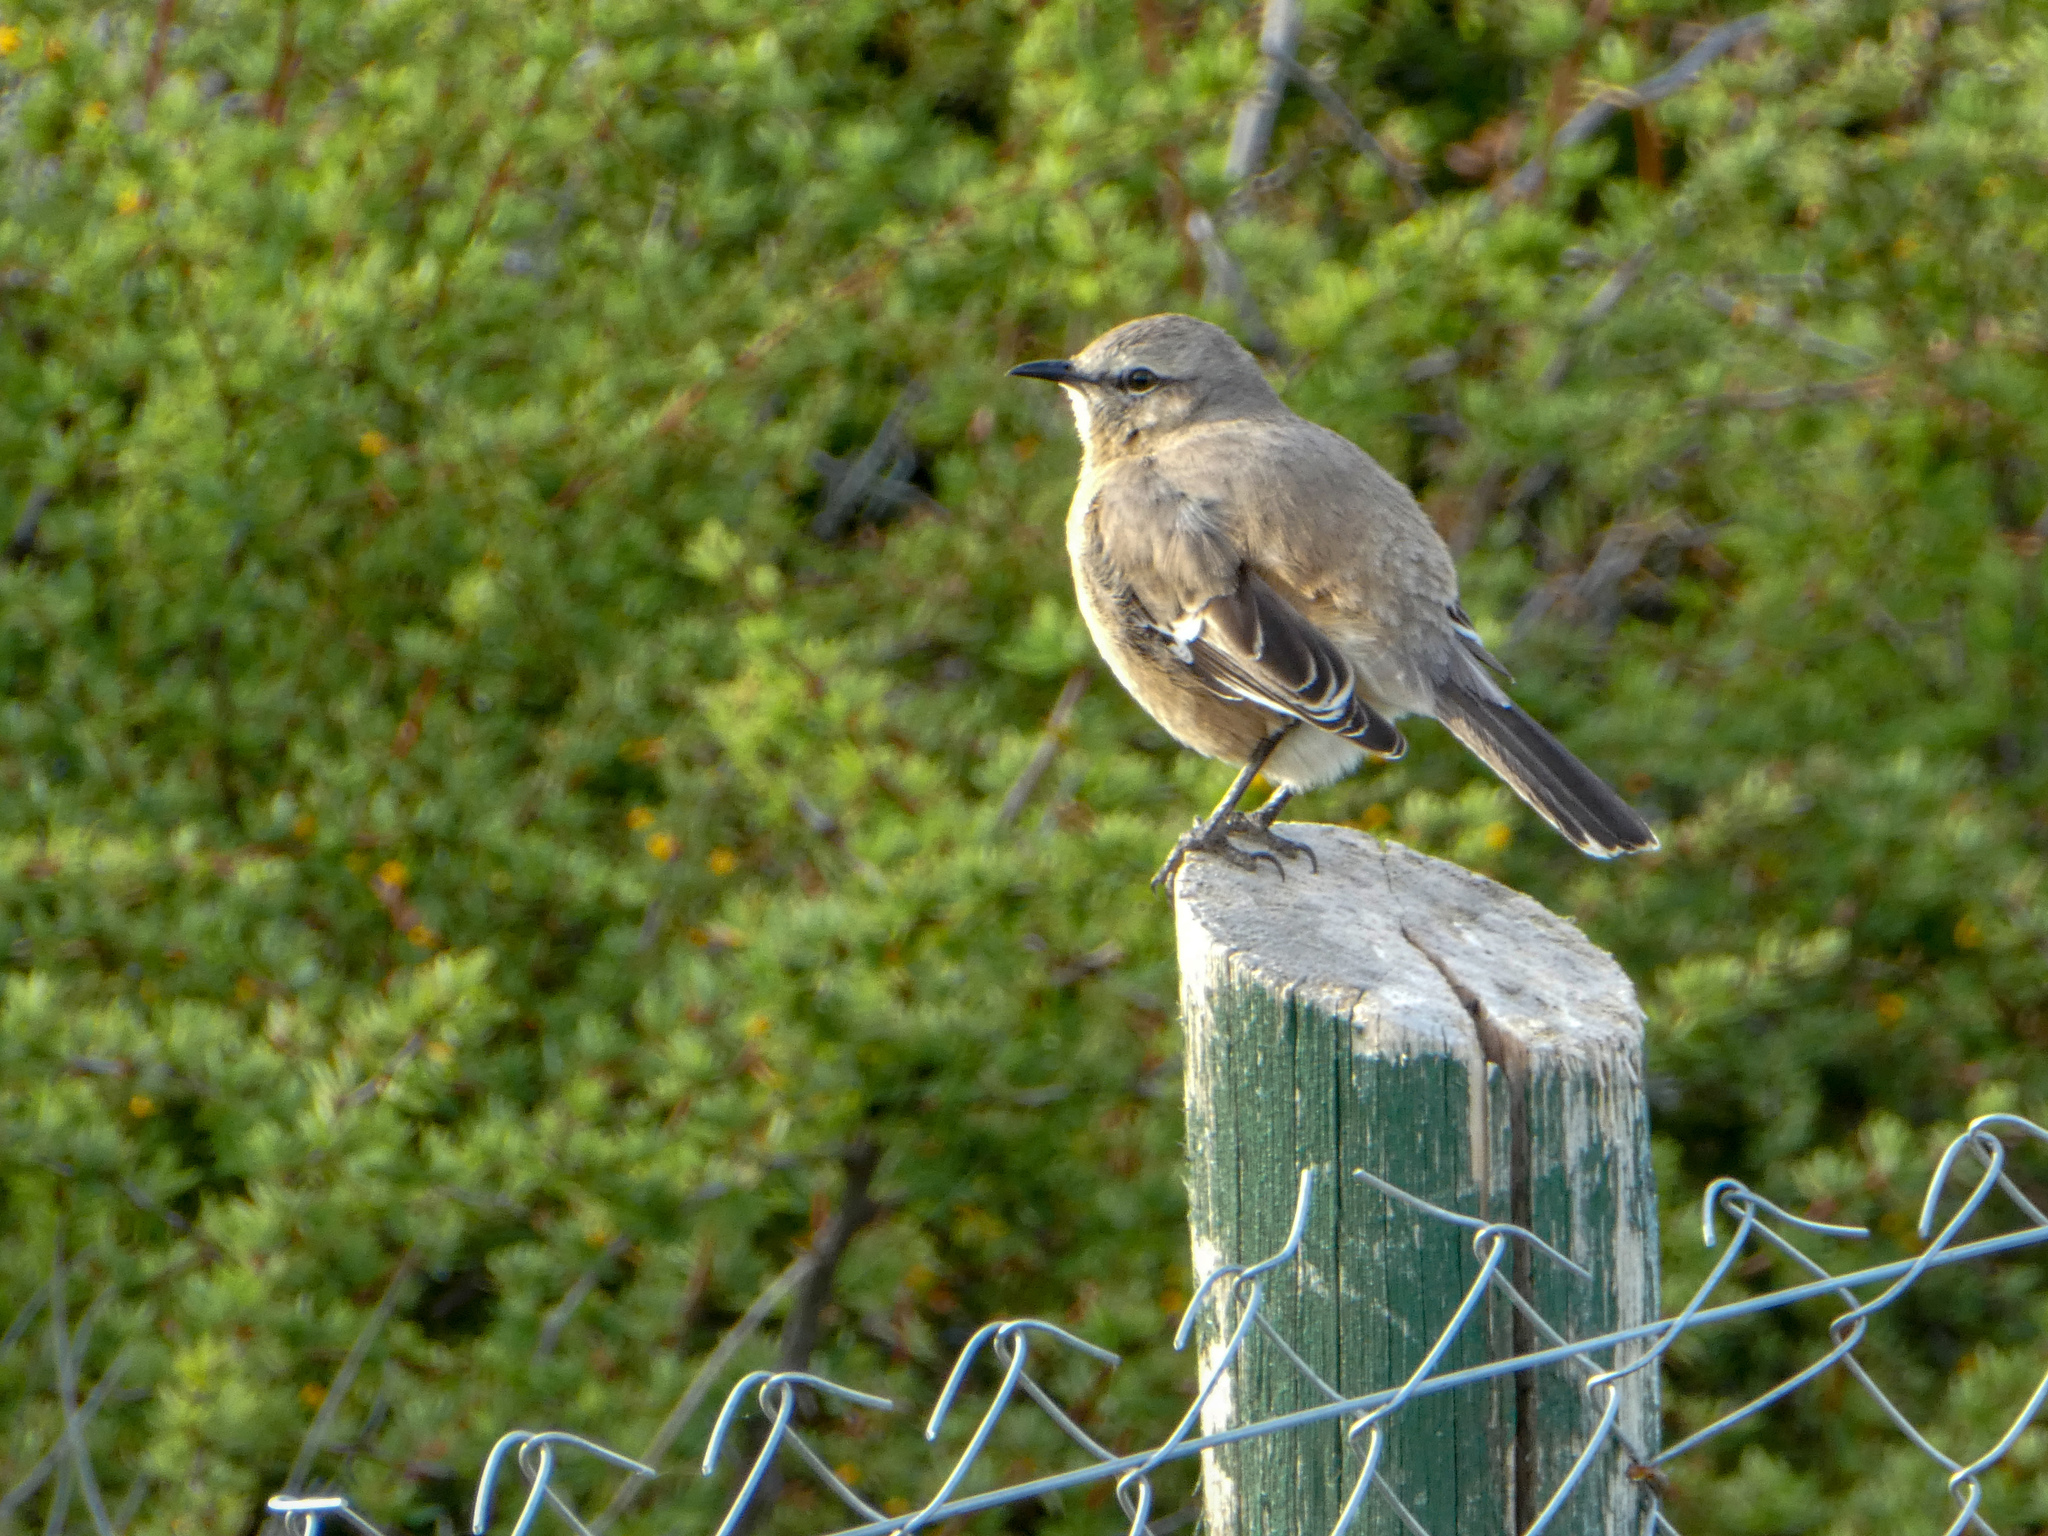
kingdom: Animalia
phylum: Chordata
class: Aves
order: Passeriformes
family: Mimidae
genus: Mimus
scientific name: Mimus patagonicus
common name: Patagonian mockingbird
